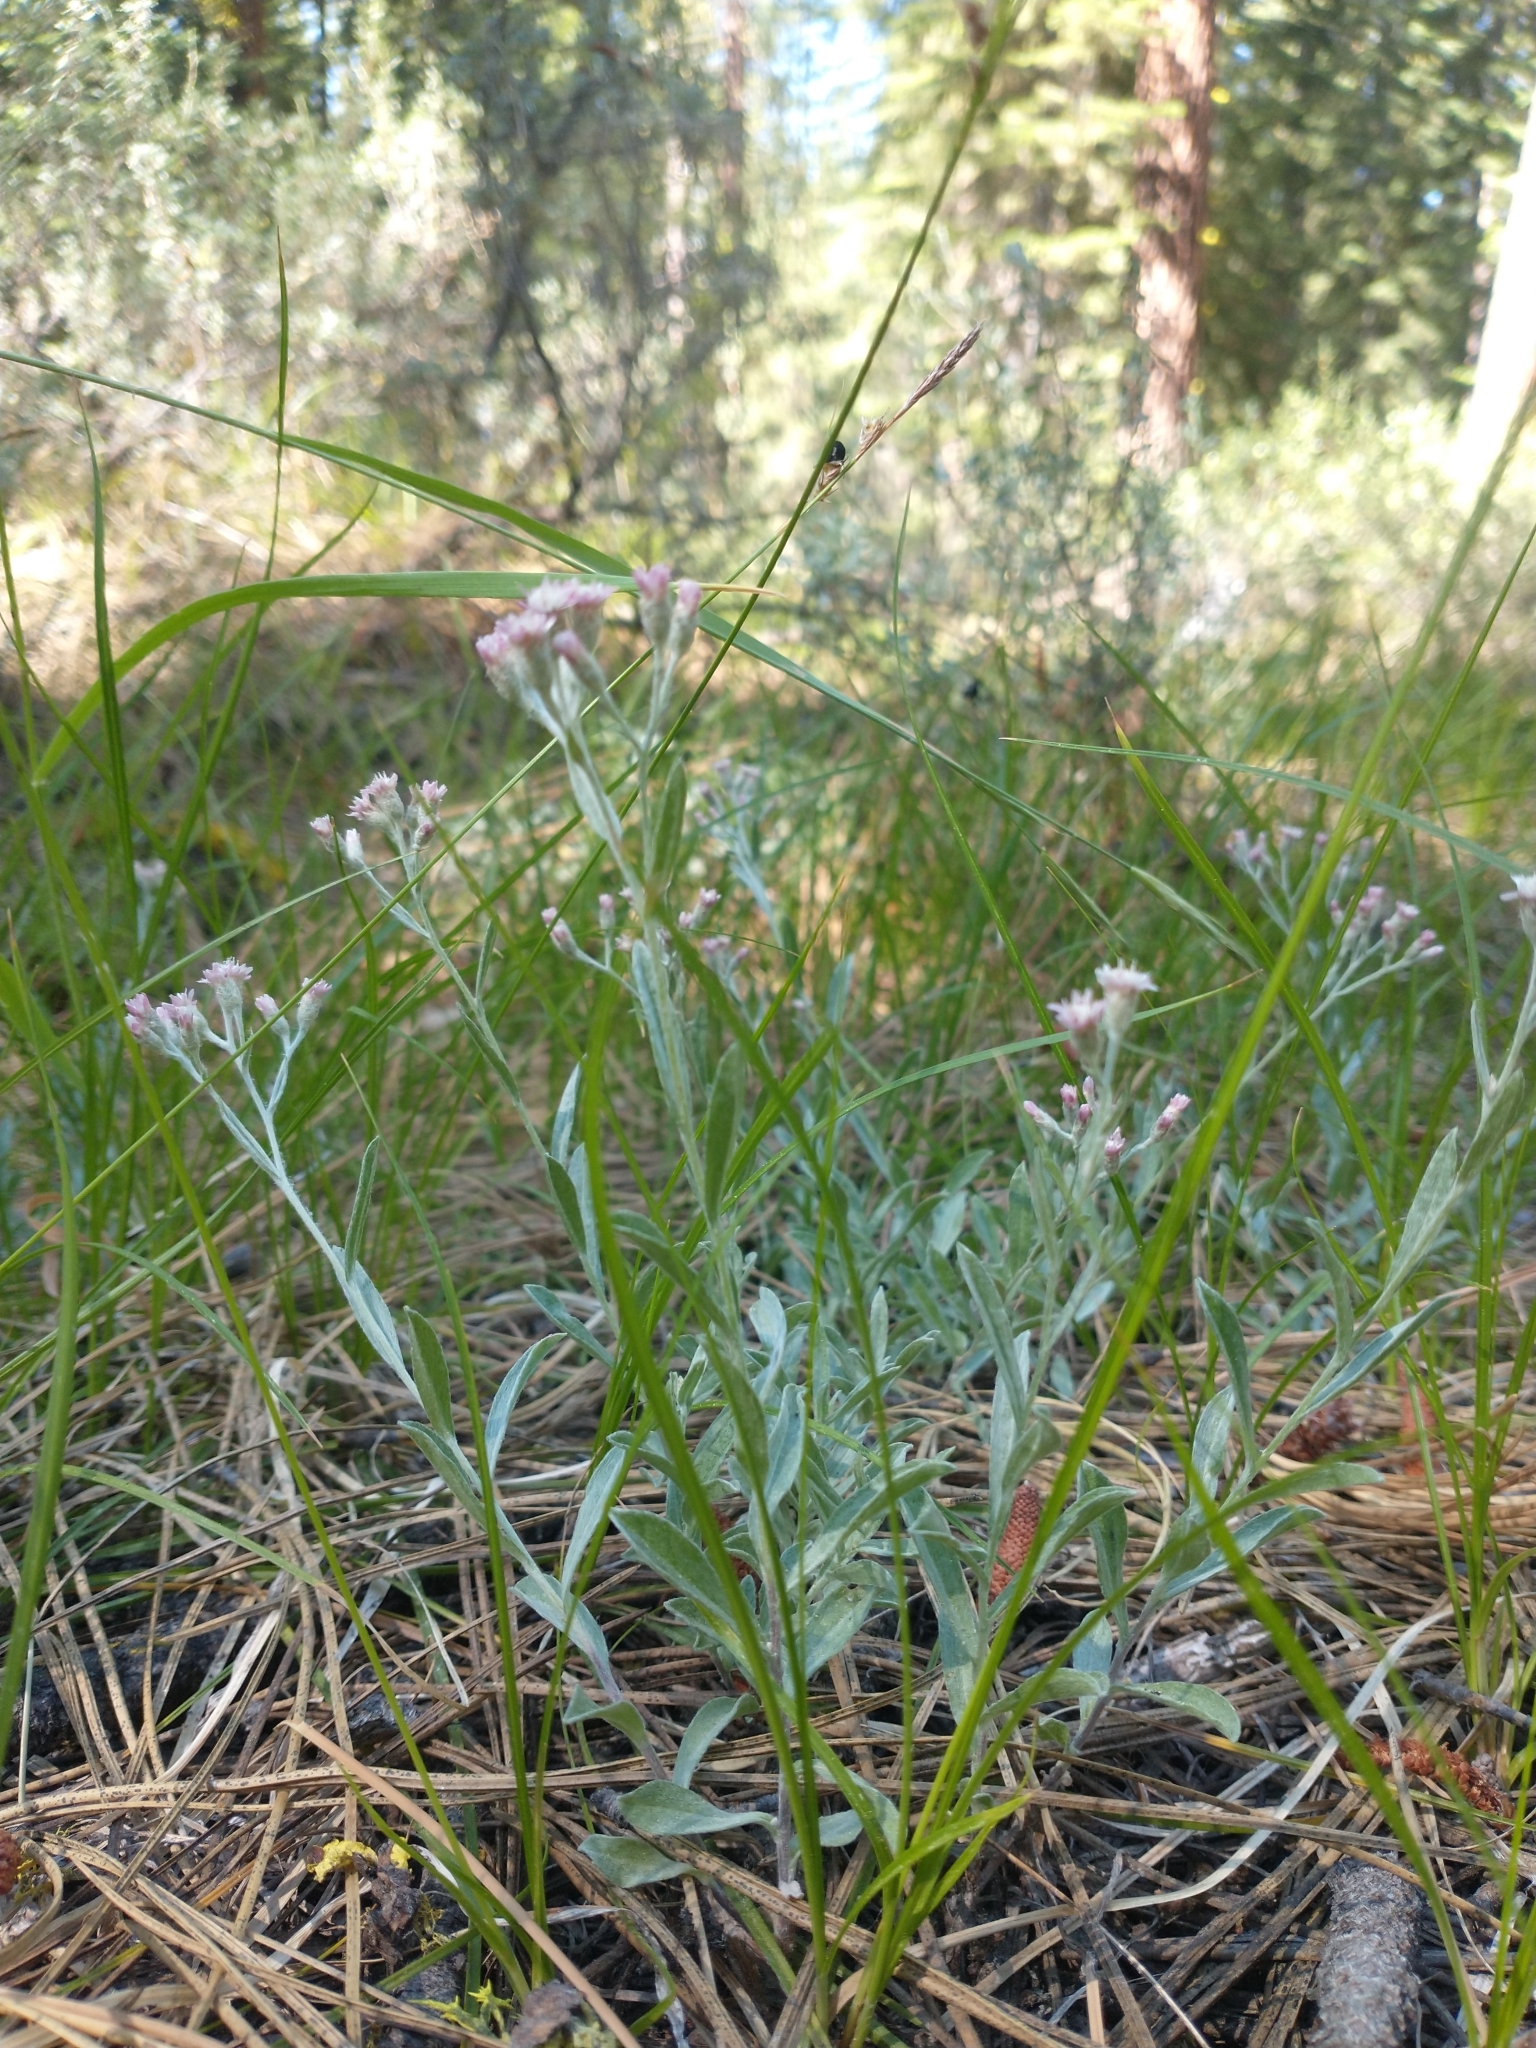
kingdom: Plantae
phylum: Tracheophyta
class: Magnoliopsida
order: Asterales
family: Asteraceae
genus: Antennaria
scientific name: Antennaria geyeri
